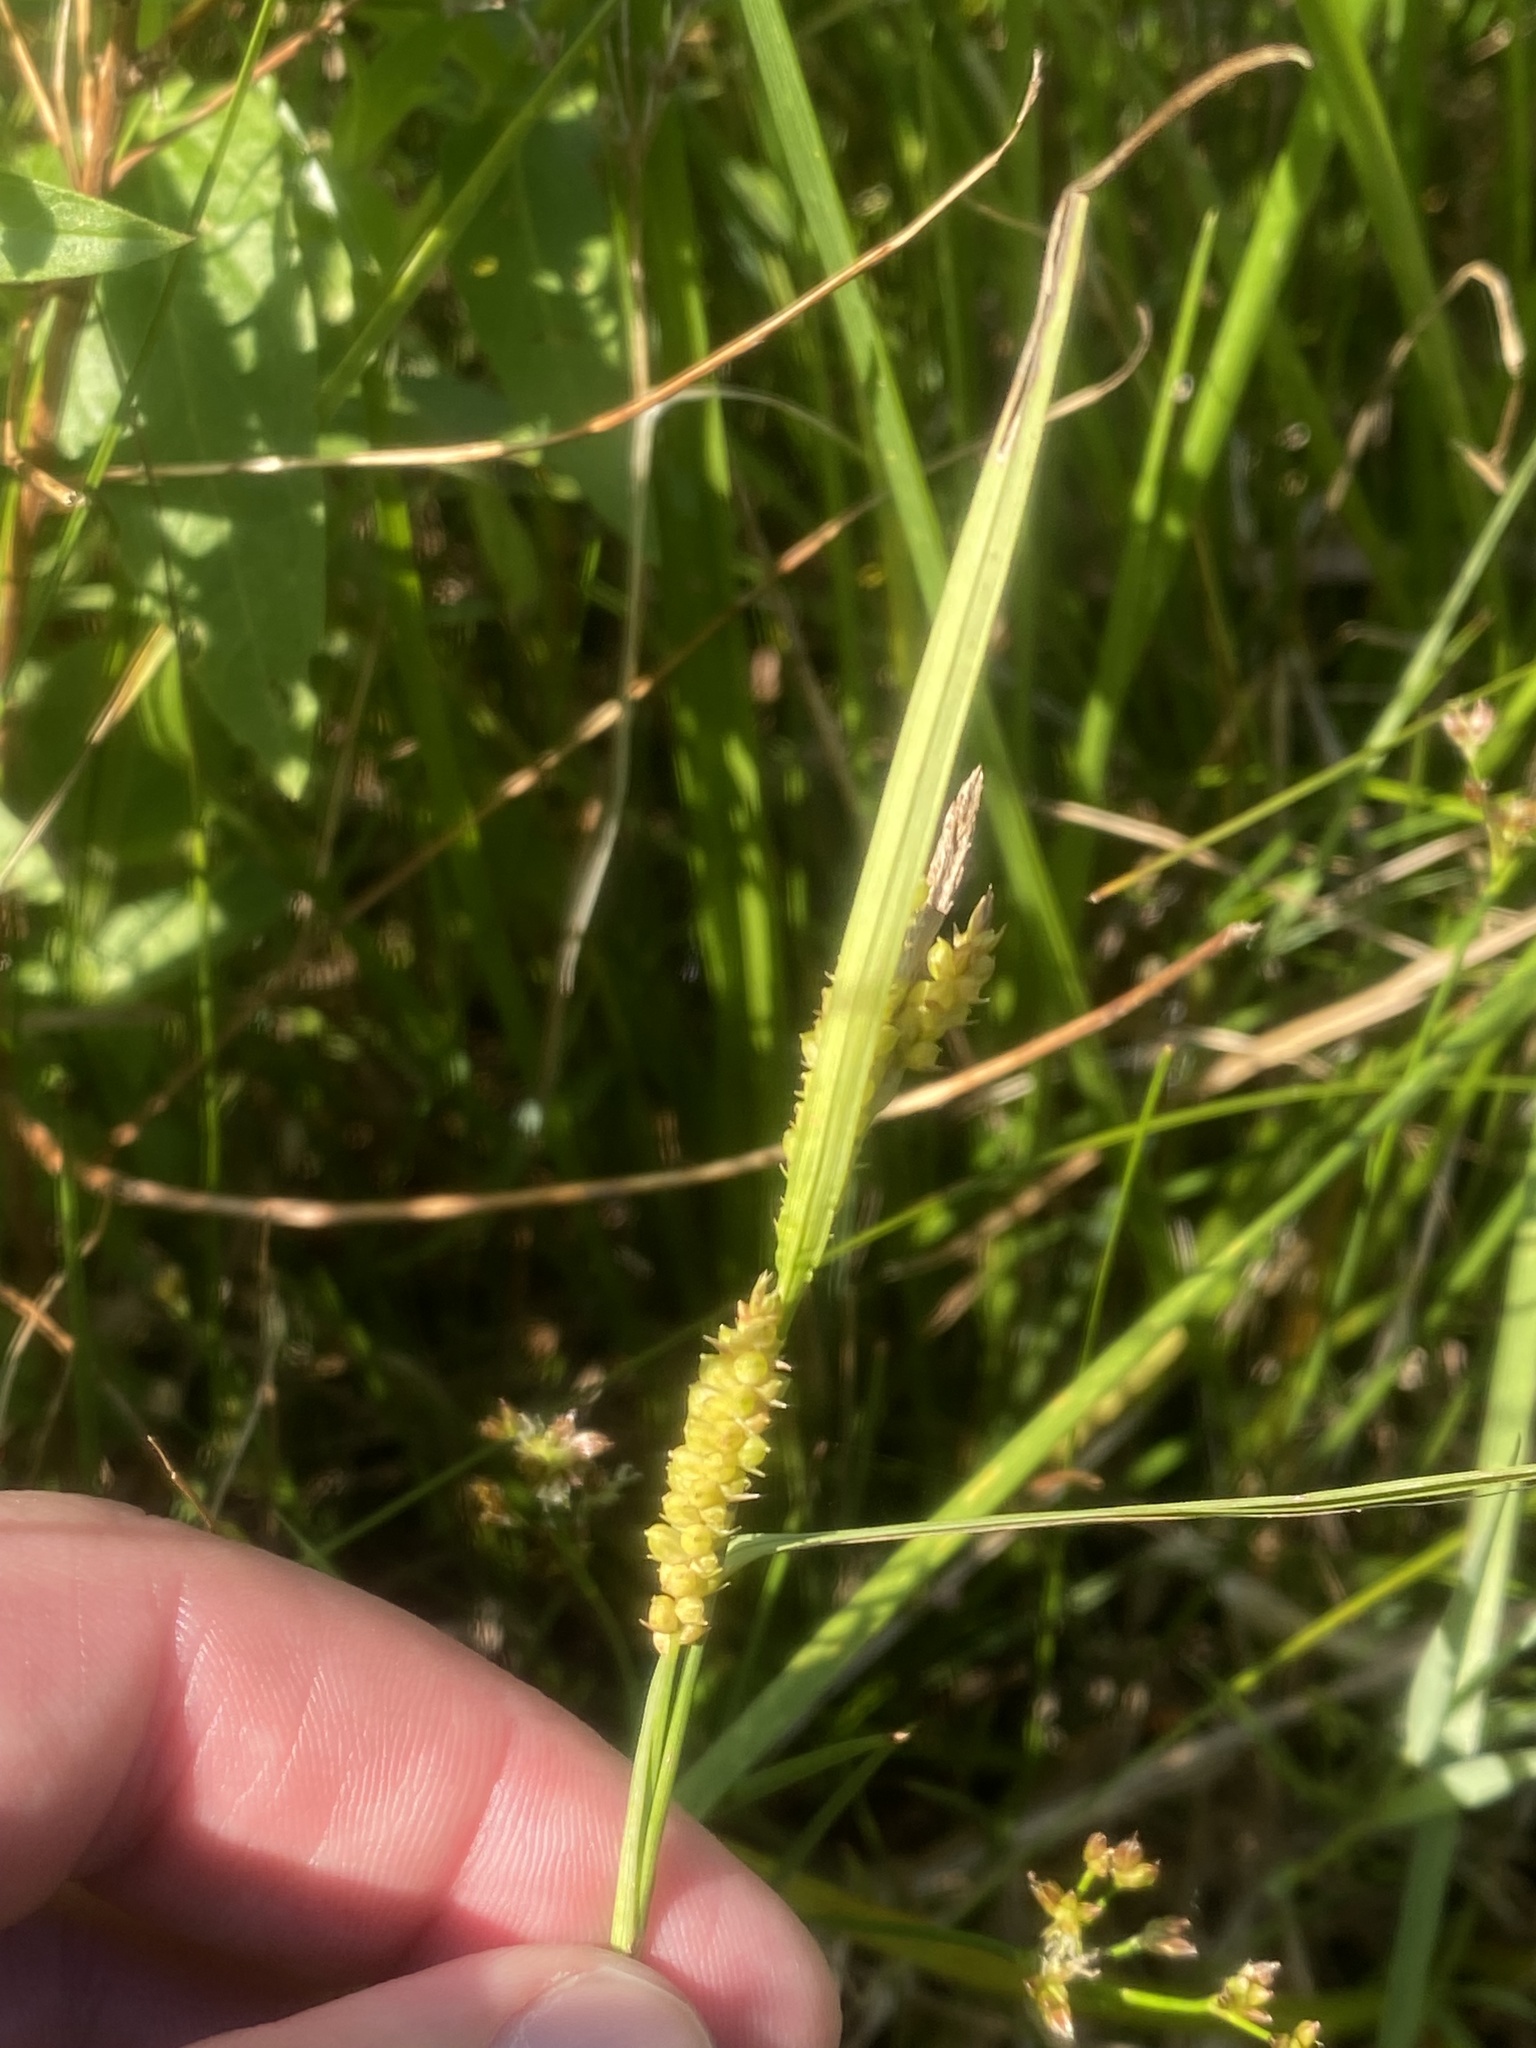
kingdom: Plantae
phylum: Tracheophyta
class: Liliopsida
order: Poales
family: Cyperaceae
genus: Carex
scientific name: Carex granularis
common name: Granular sedge
